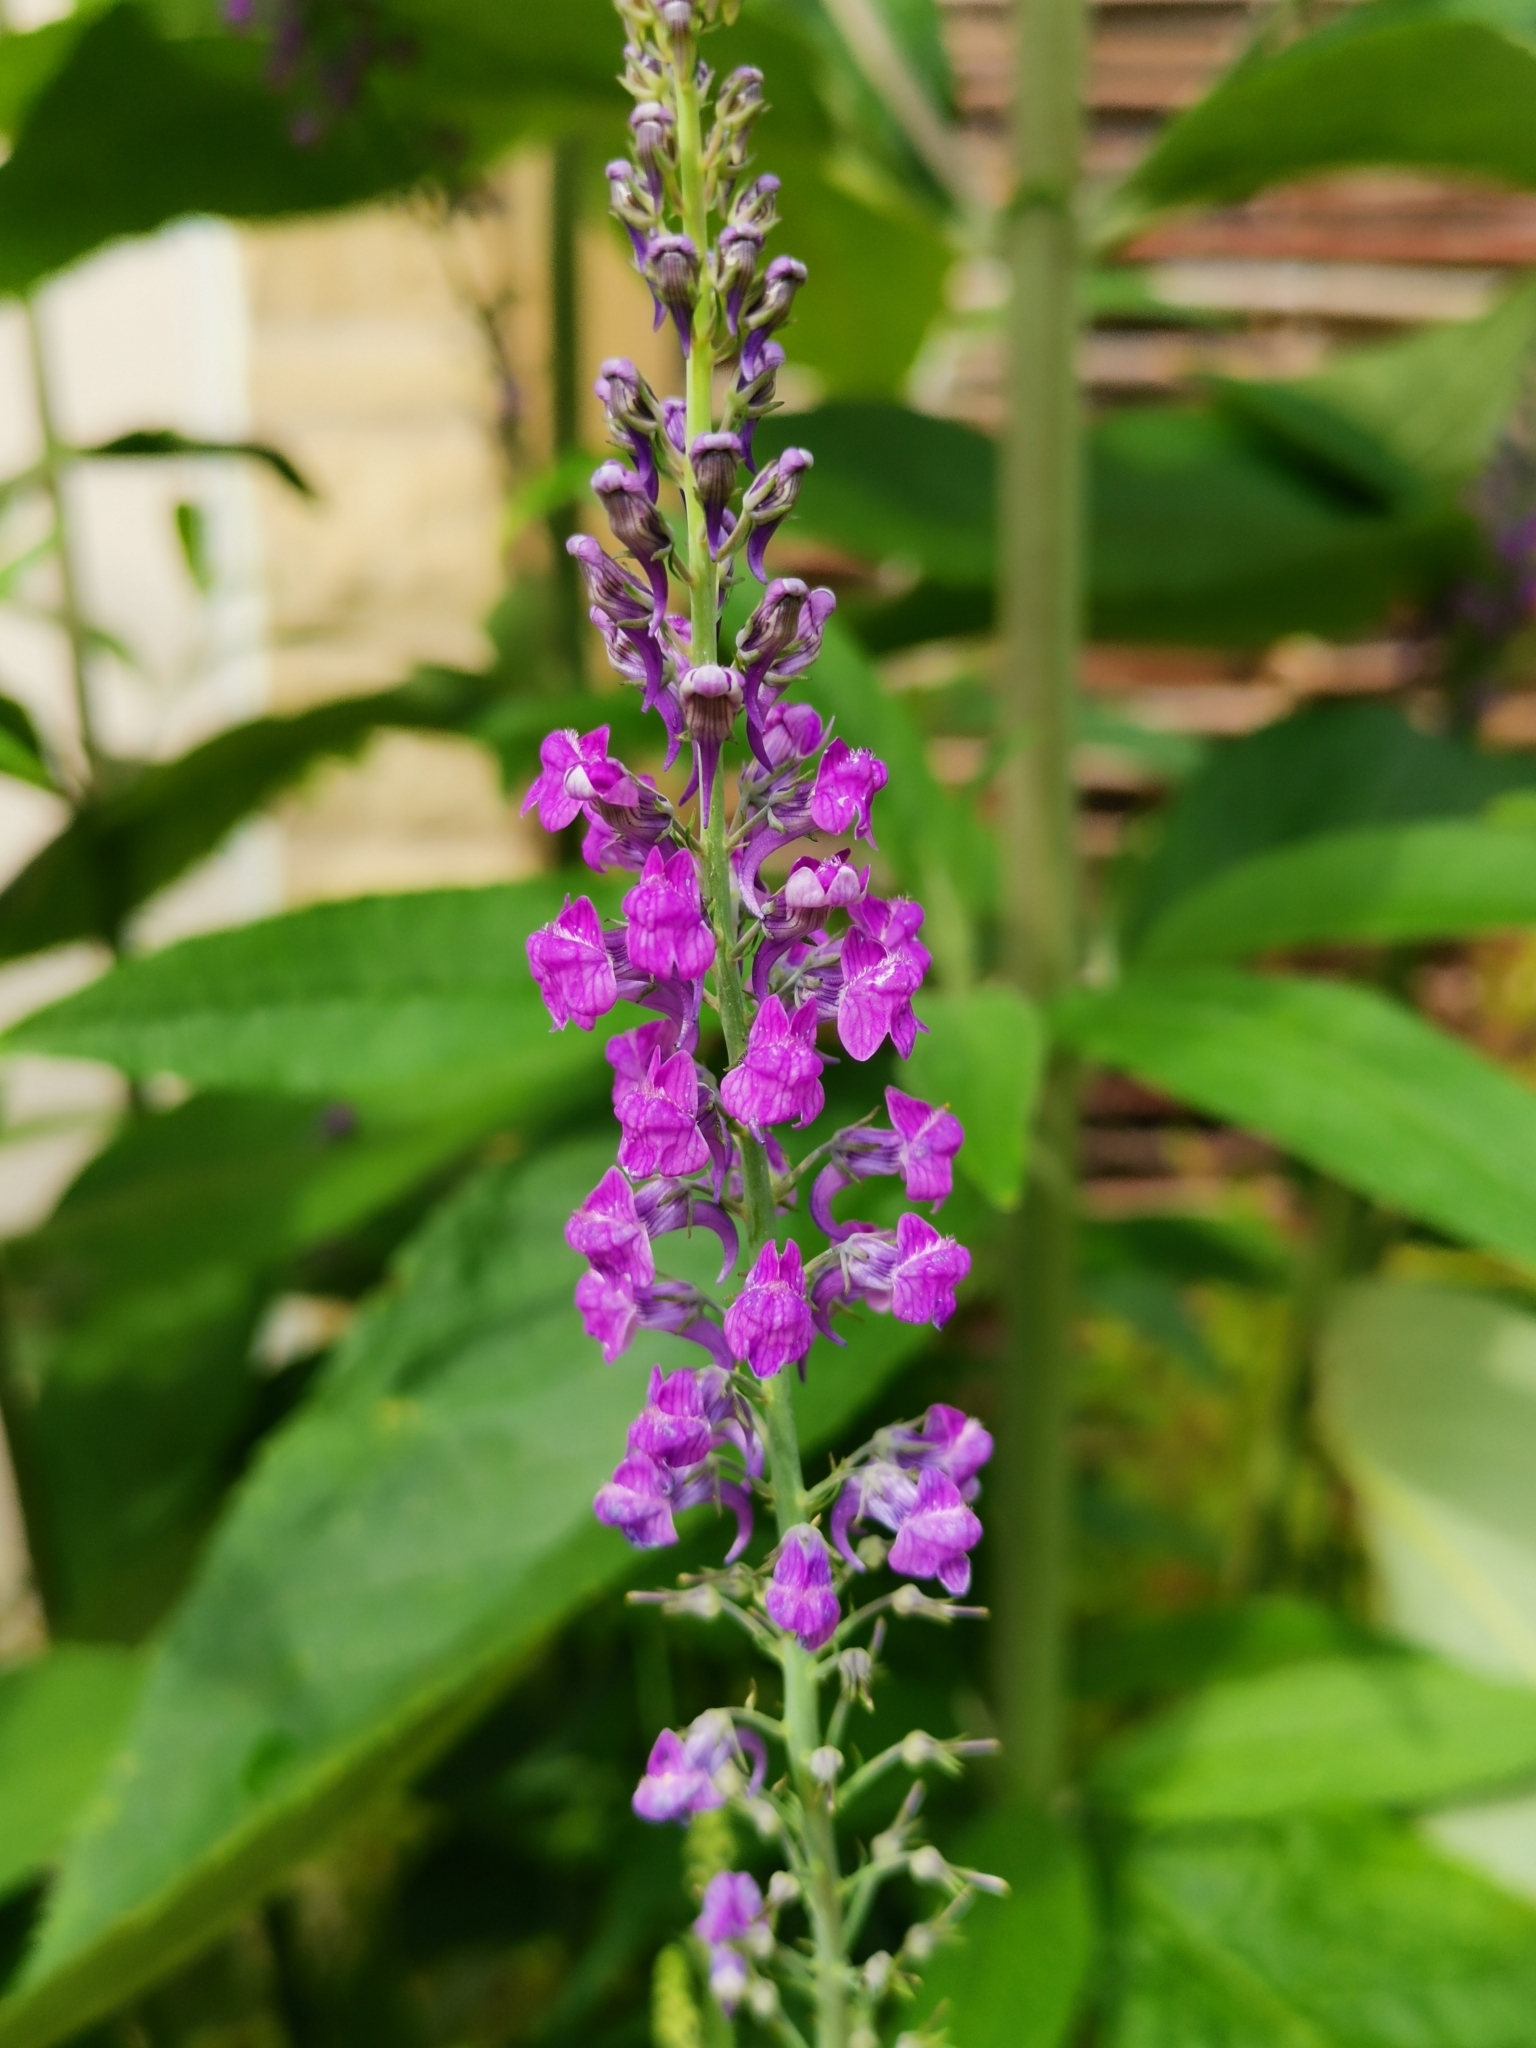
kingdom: Plantae
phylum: Tracheophyta
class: Magnoliopsida
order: Lamiales
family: Plantaginaceae
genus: Linaria
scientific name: Linaria purpurea
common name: Purple toadflax
